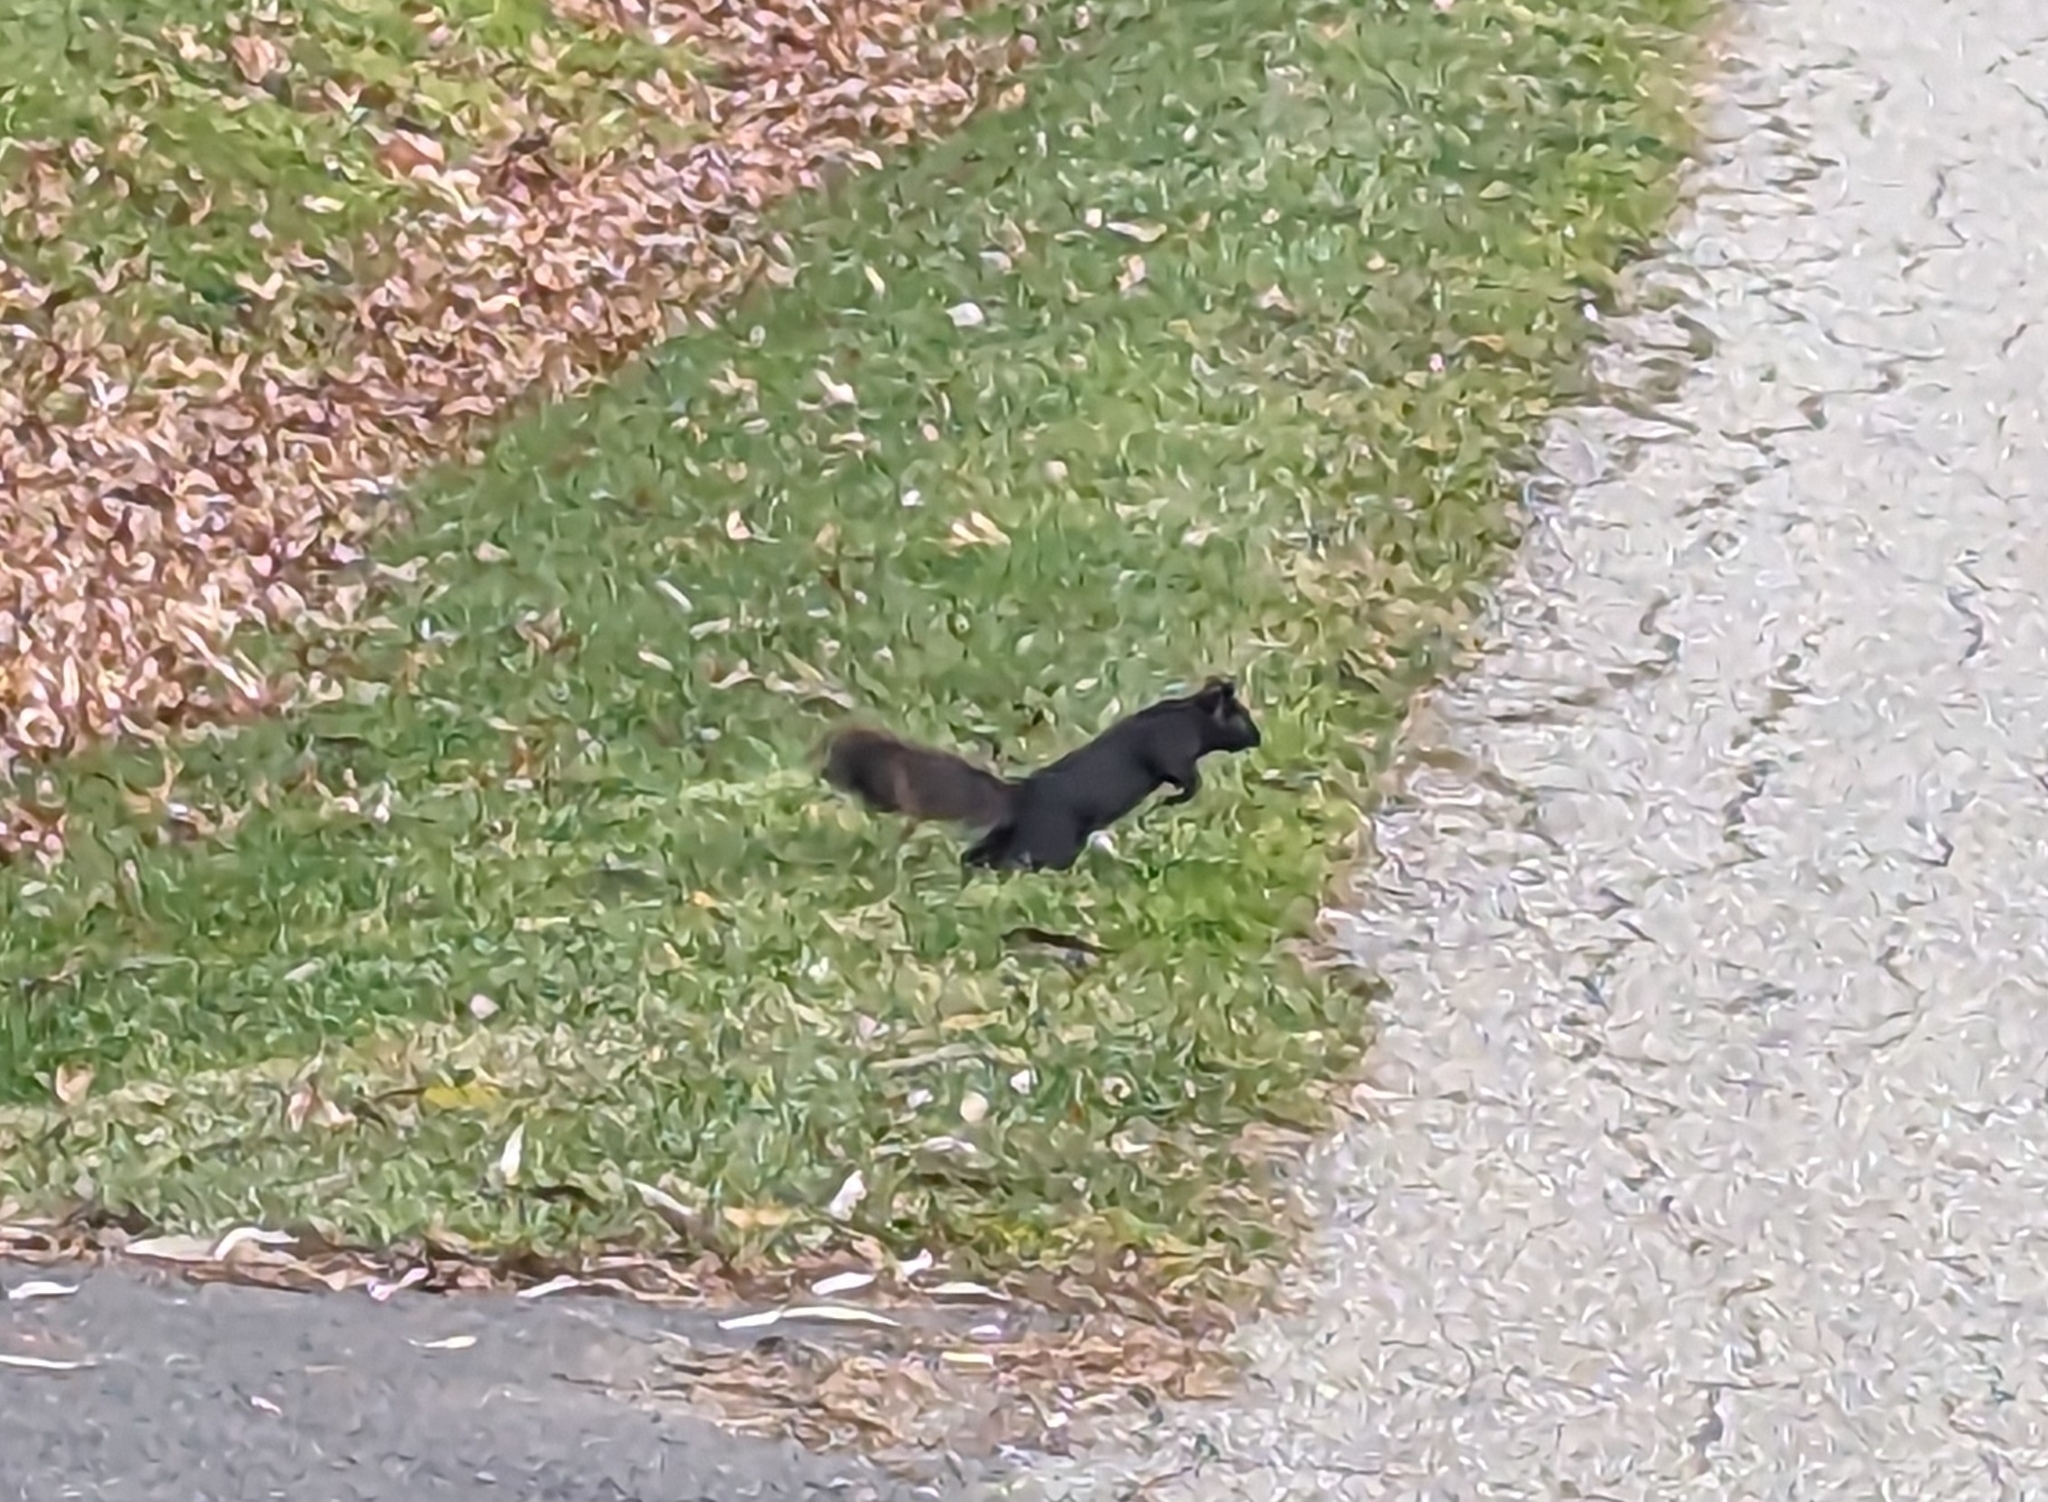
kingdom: Animalia
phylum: Chordata
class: Mammalia
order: Rodentia
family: Sciuridae
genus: Sciurus
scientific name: Sciurus carolinensis
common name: Eastern gray squirrel
